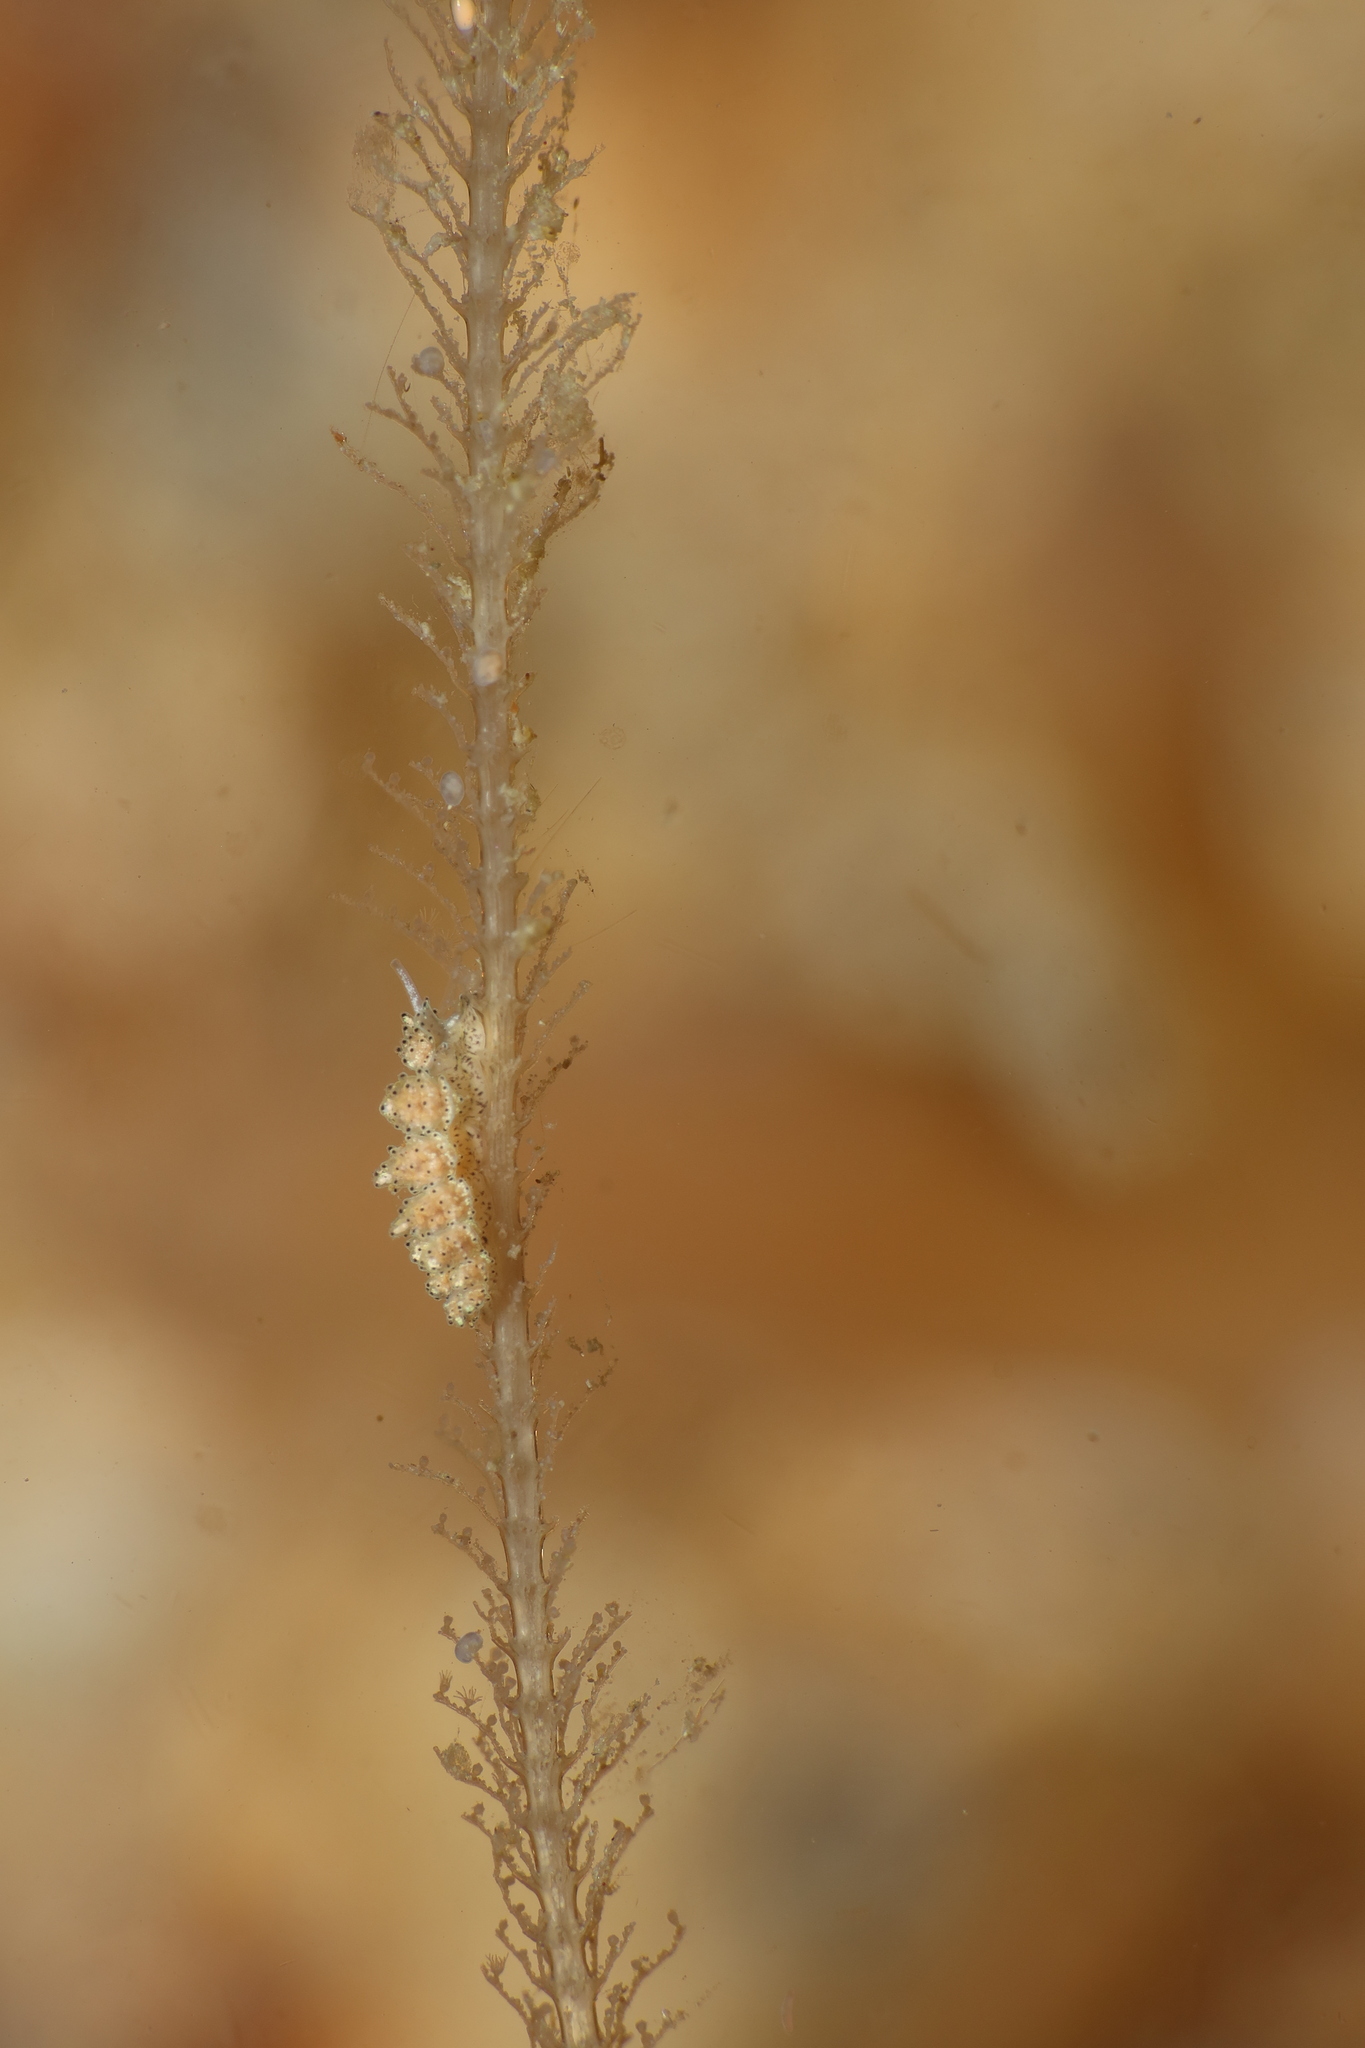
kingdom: Animalia
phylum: Mollusca
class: Gastropoda
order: Nudibranchia
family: Dotidae
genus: Doto
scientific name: Doto pinnatifida
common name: Feathered doto
